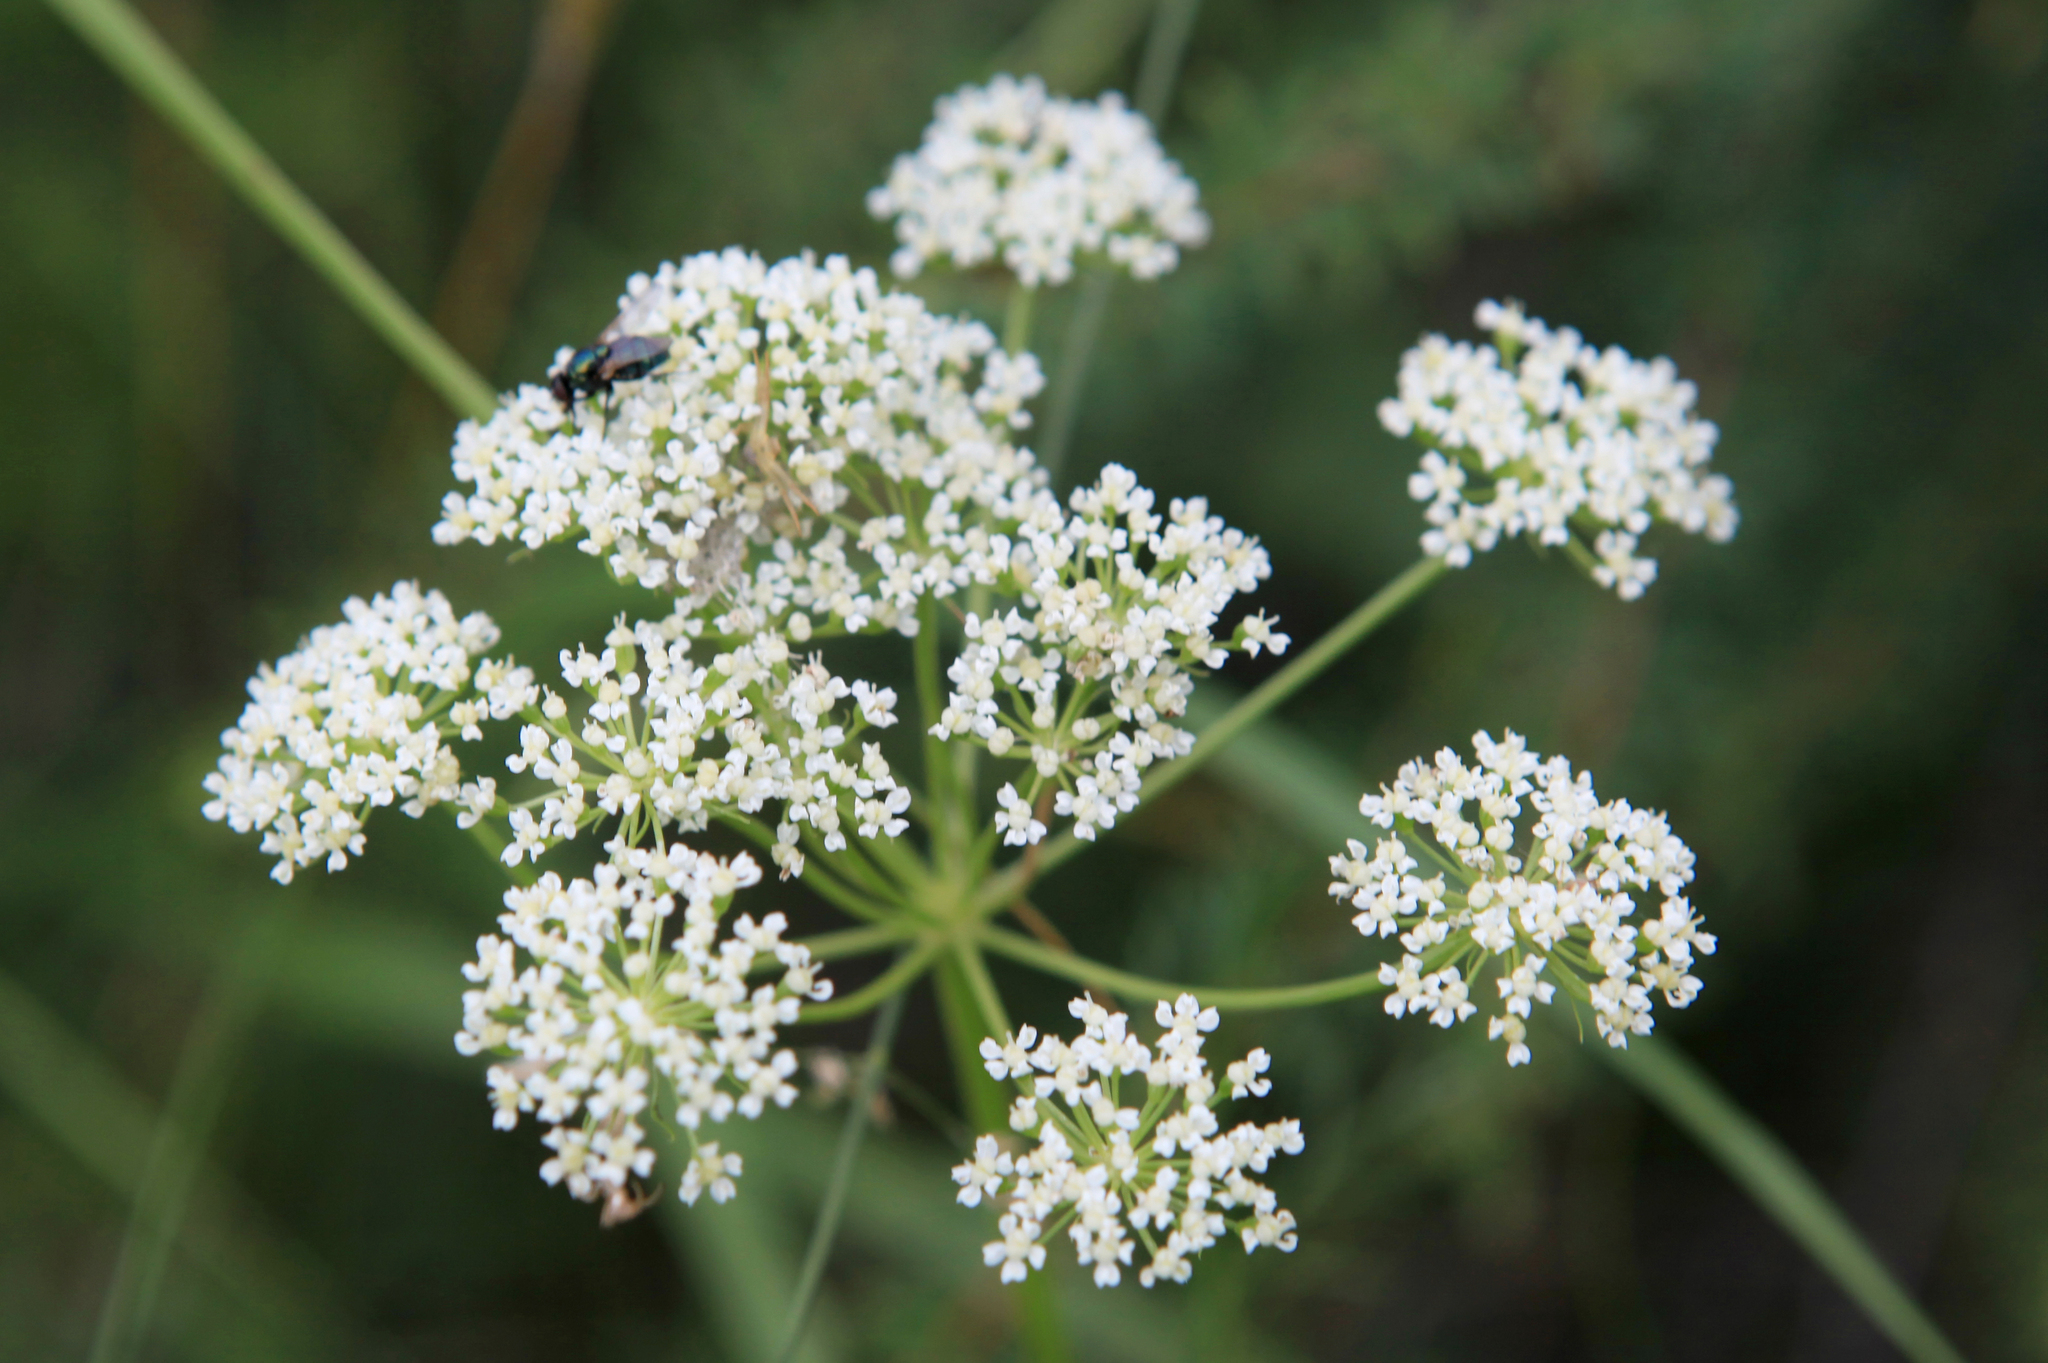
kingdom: Plantae
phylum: Tracheophyta
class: Magnoliopsida
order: Apiales
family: Apiaceae
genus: Aegopodium
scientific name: Aegopodium alpestre
